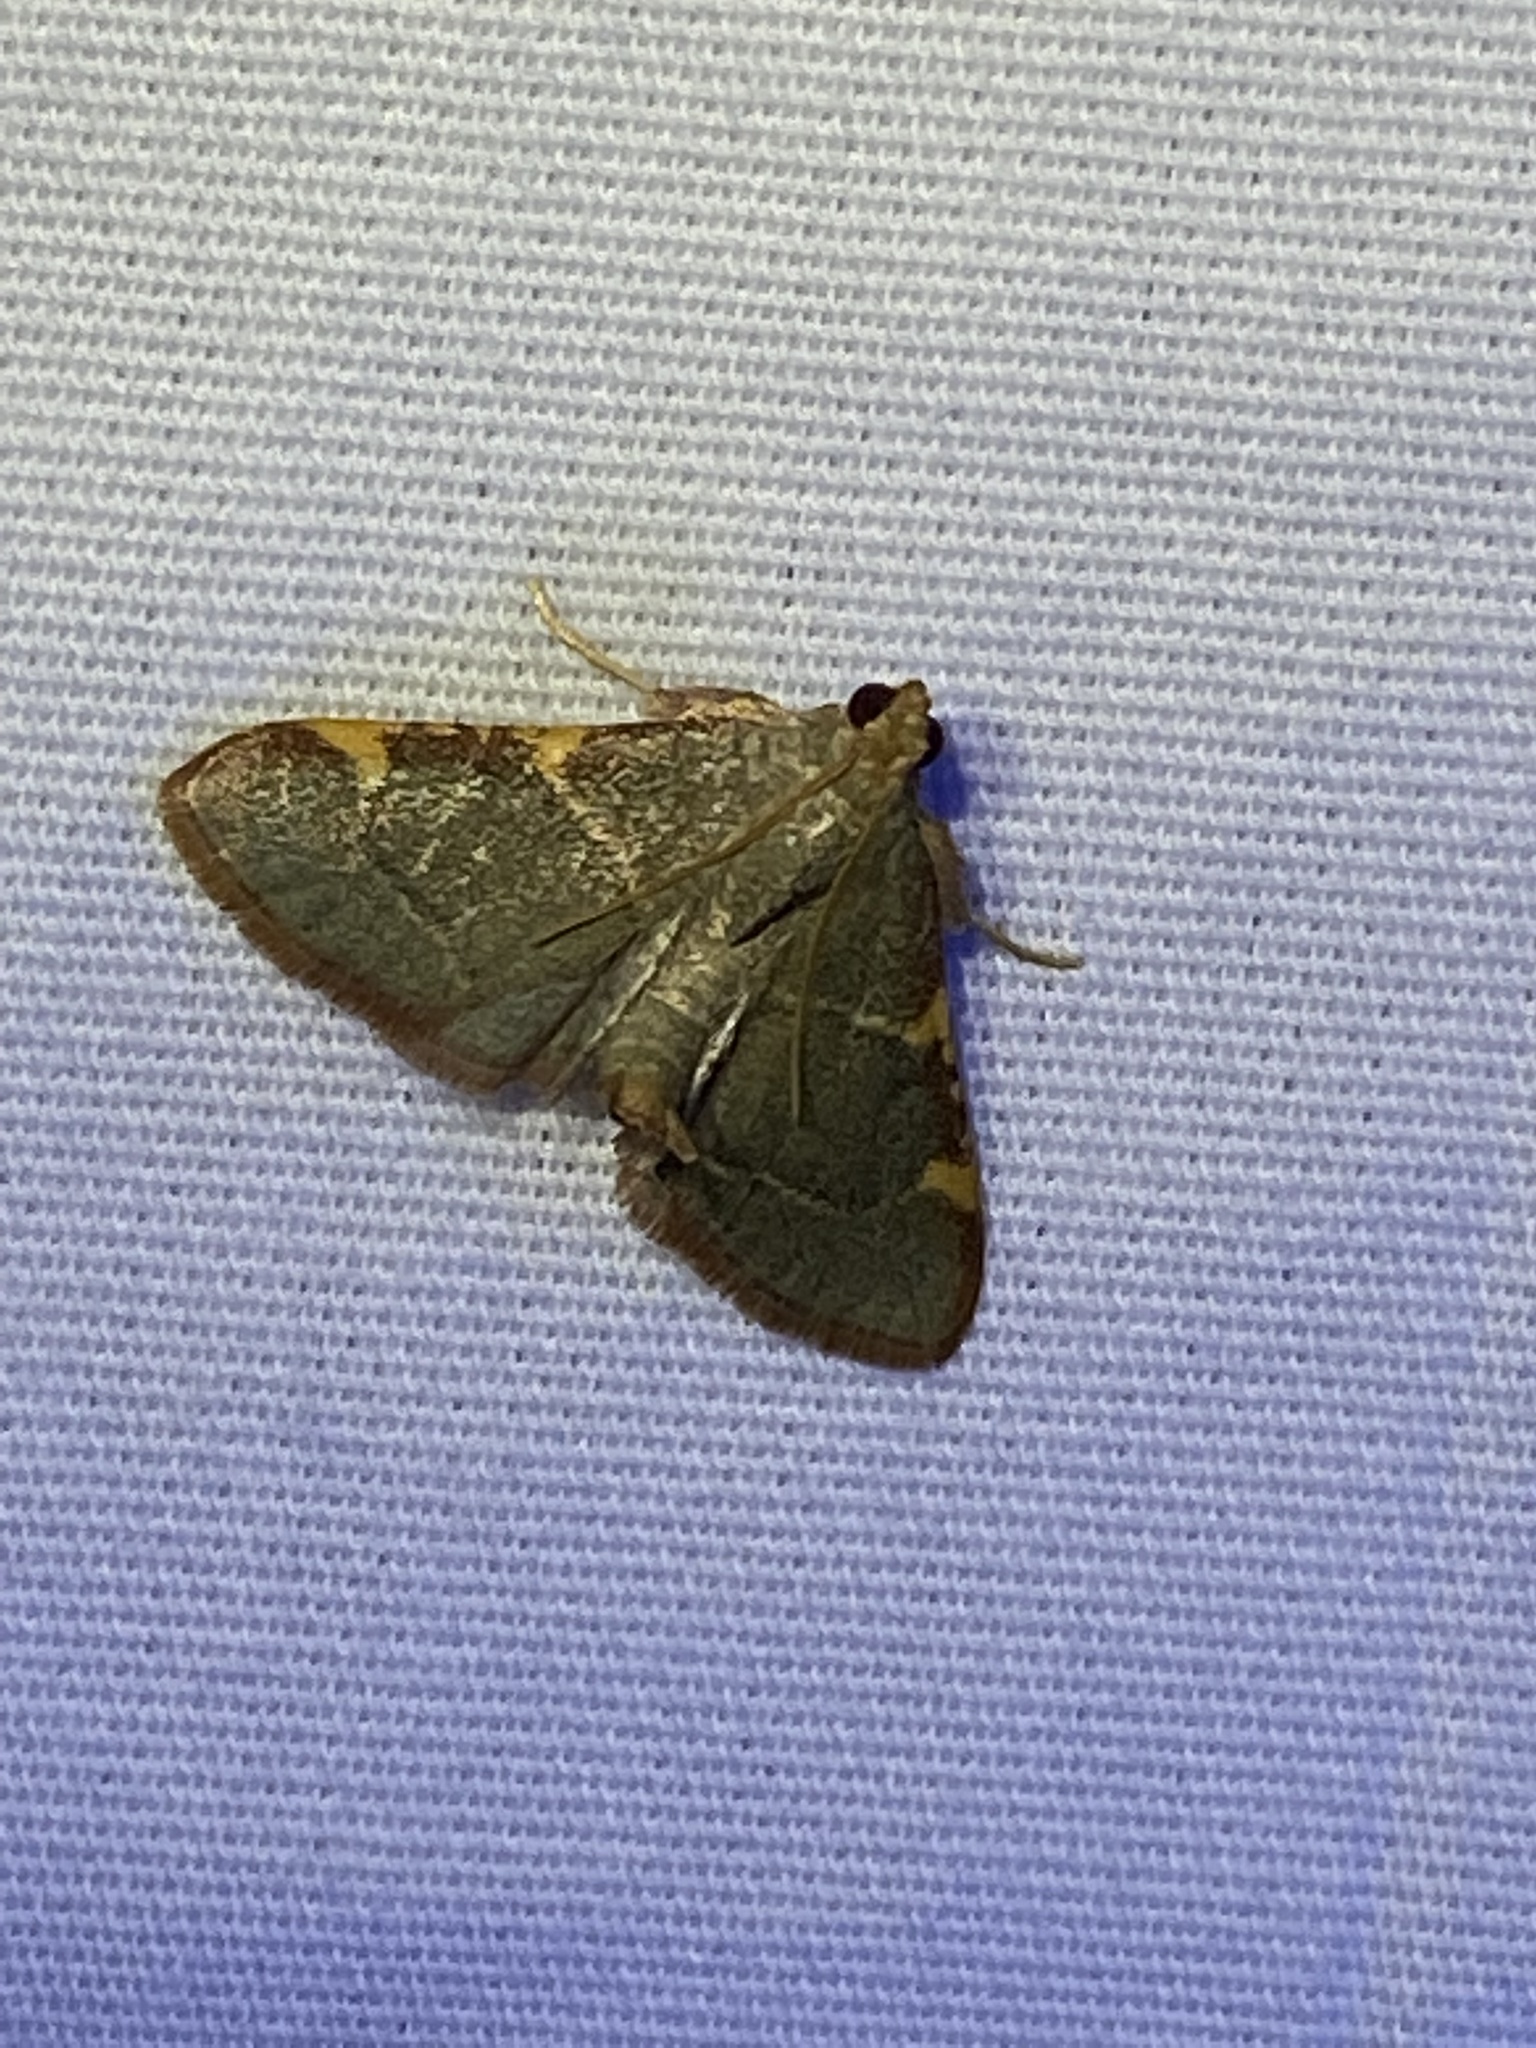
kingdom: Animalia
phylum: Arthropoda
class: Insecta
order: Lepidoptera
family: Pyralidae
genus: Hypsopygia
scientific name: Hypsopygia binodulalis
